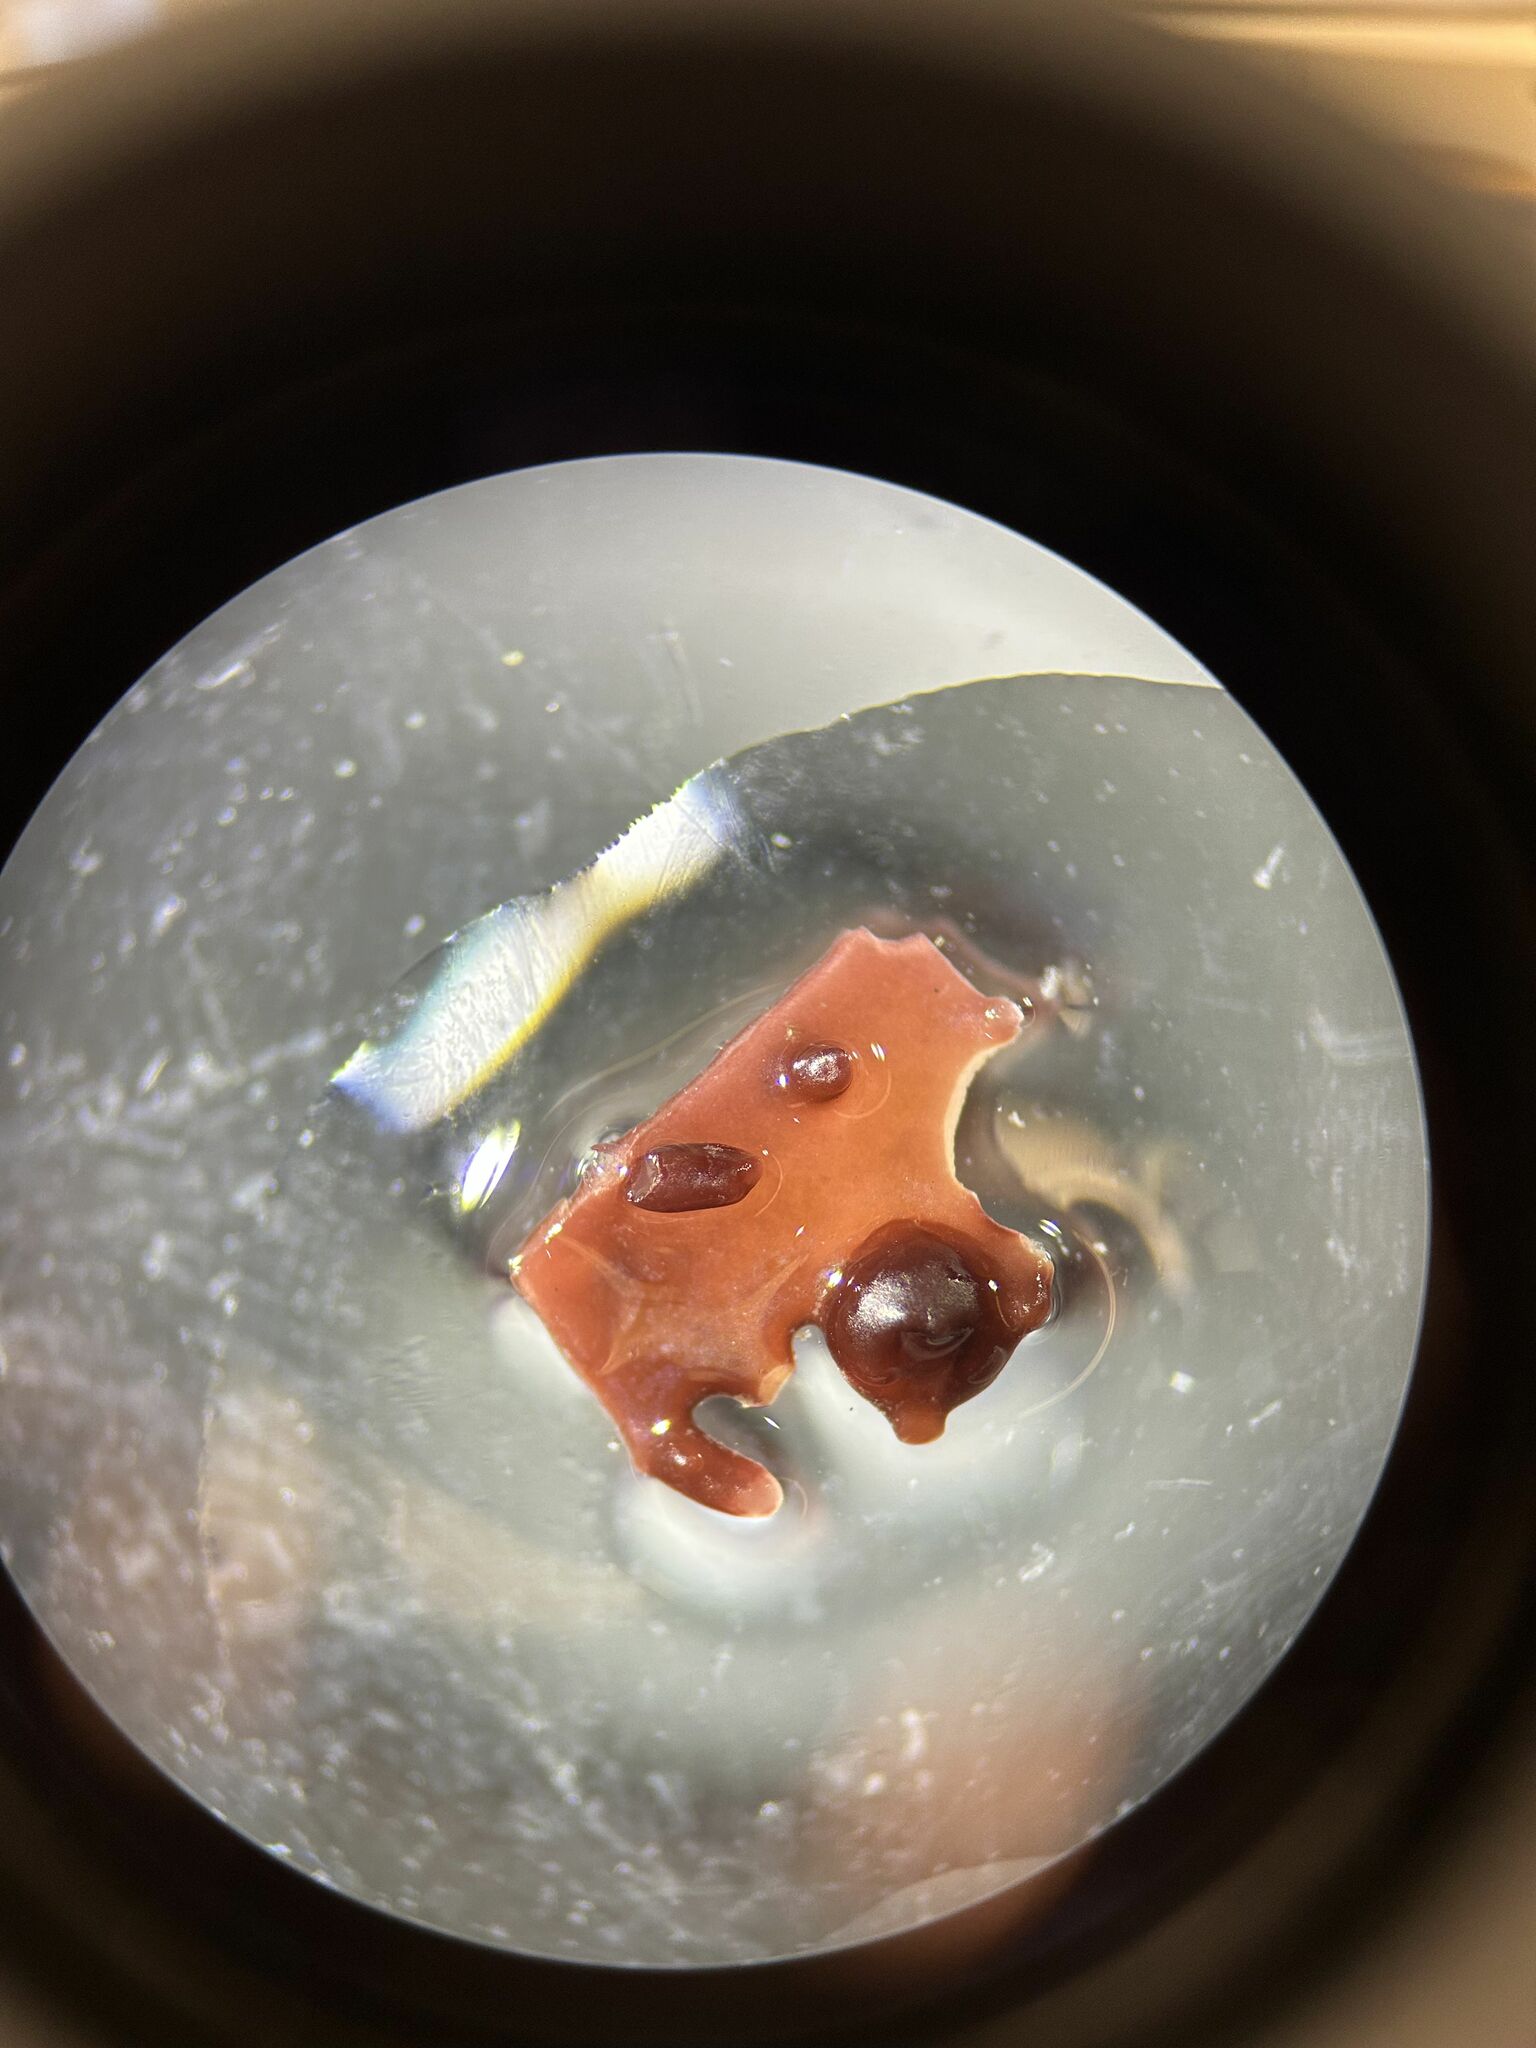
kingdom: Plantae
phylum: Rhodophyta
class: Florideophyceae
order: Gigartinales
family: Gigartinaceae
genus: Chondracanthus
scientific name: Chondracanthus exasperatus
